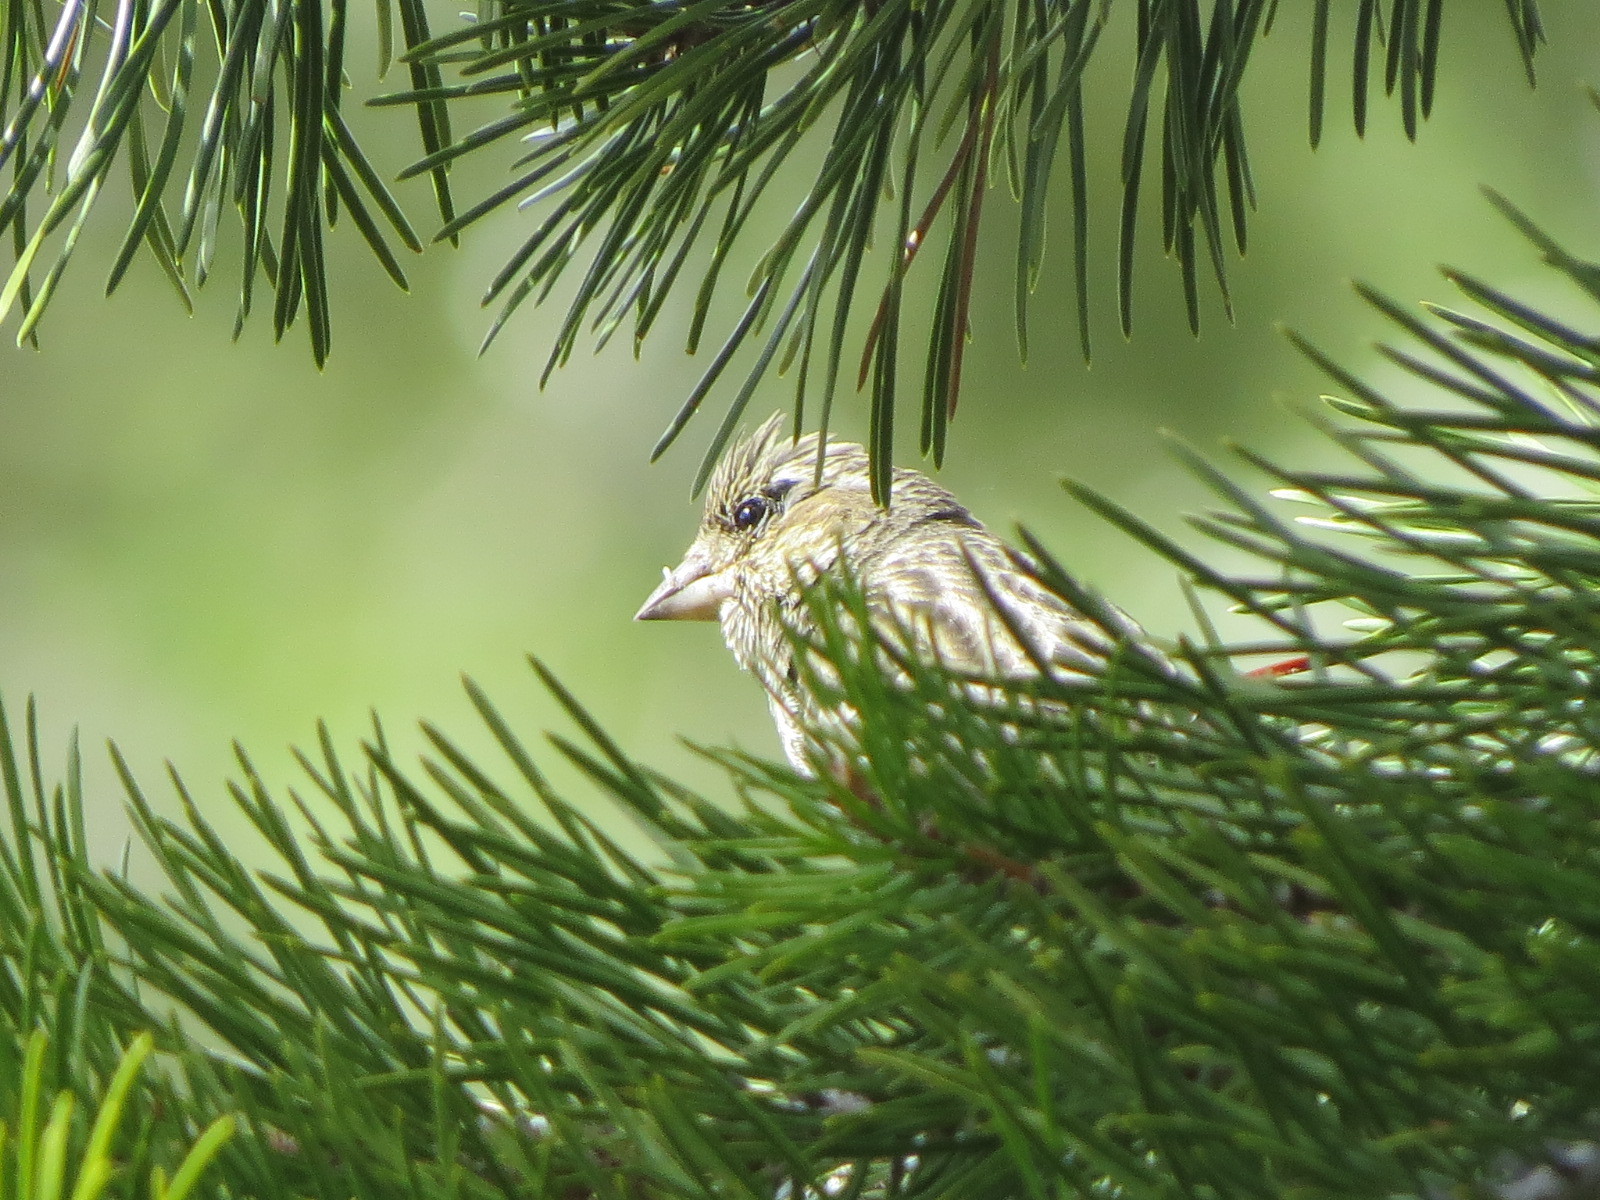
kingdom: Animalia
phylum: Chordata
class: Aves
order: Passeriformes
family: Fringillidae
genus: Haemorhous
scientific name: Haemorhous cassinii
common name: Cassin's finch
